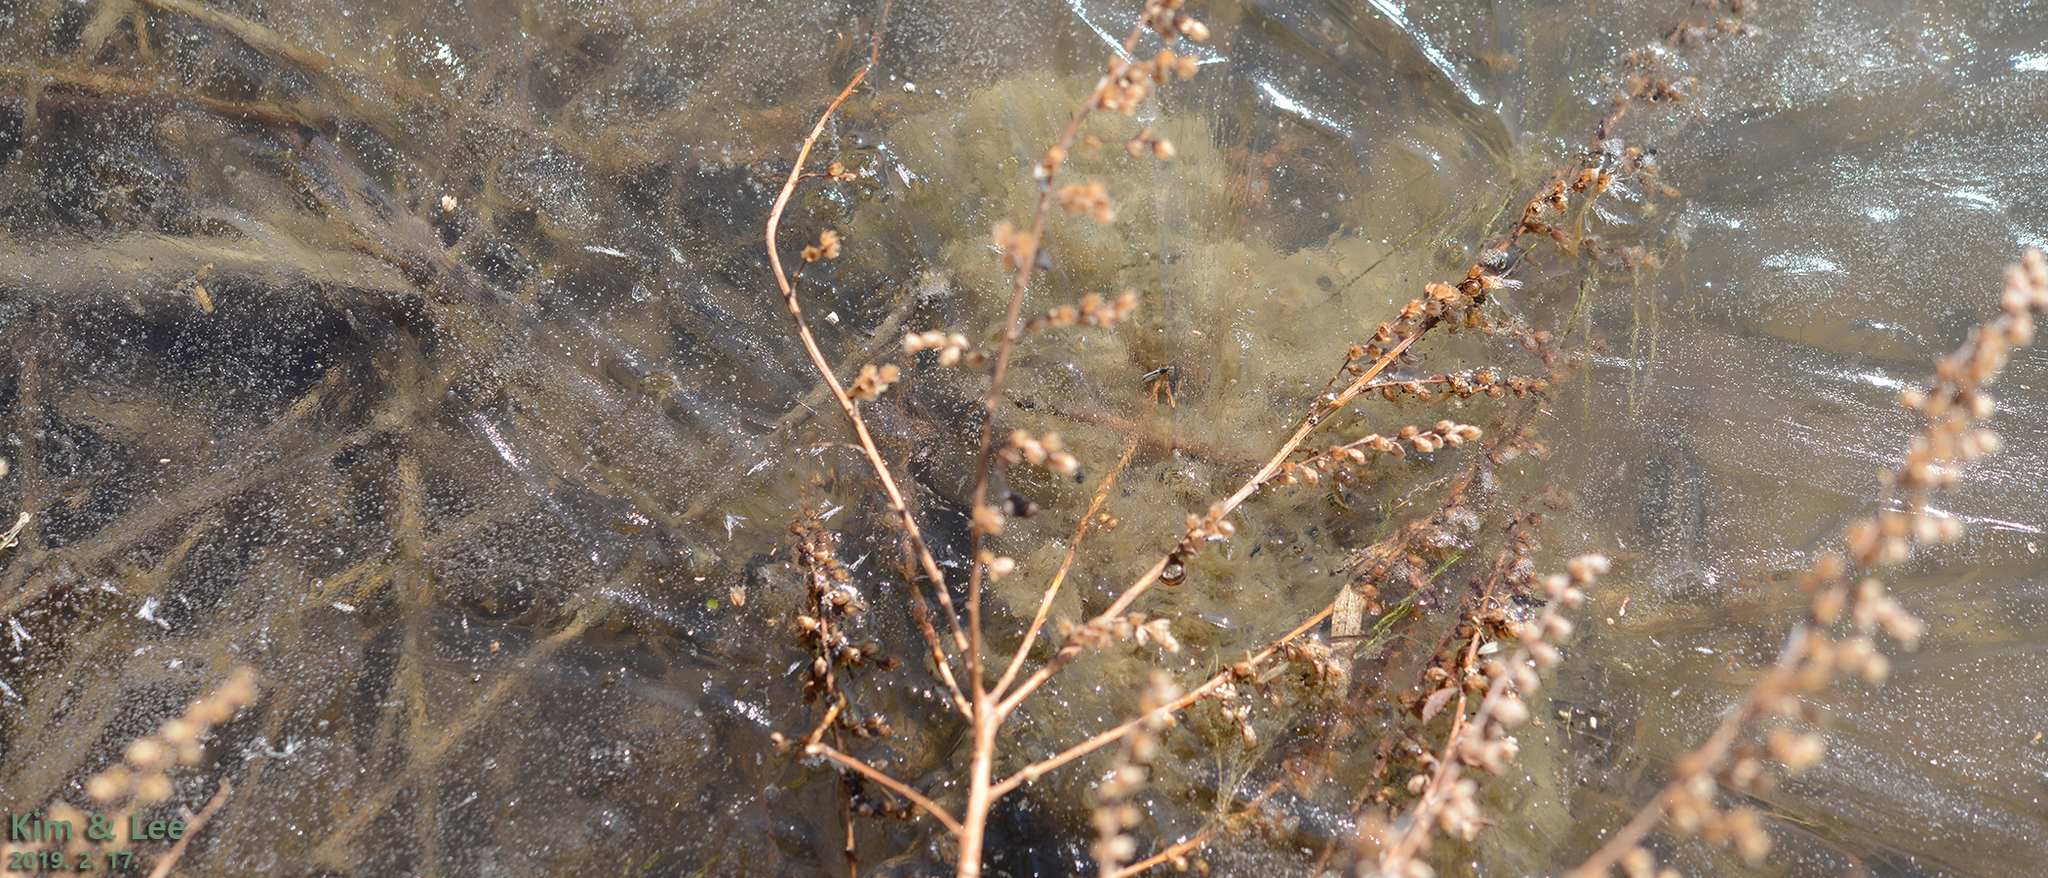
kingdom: Animalia
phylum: Chordata
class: Amphibia
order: Anura
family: Ranidae
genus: Rana
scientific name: Rana uenoi
